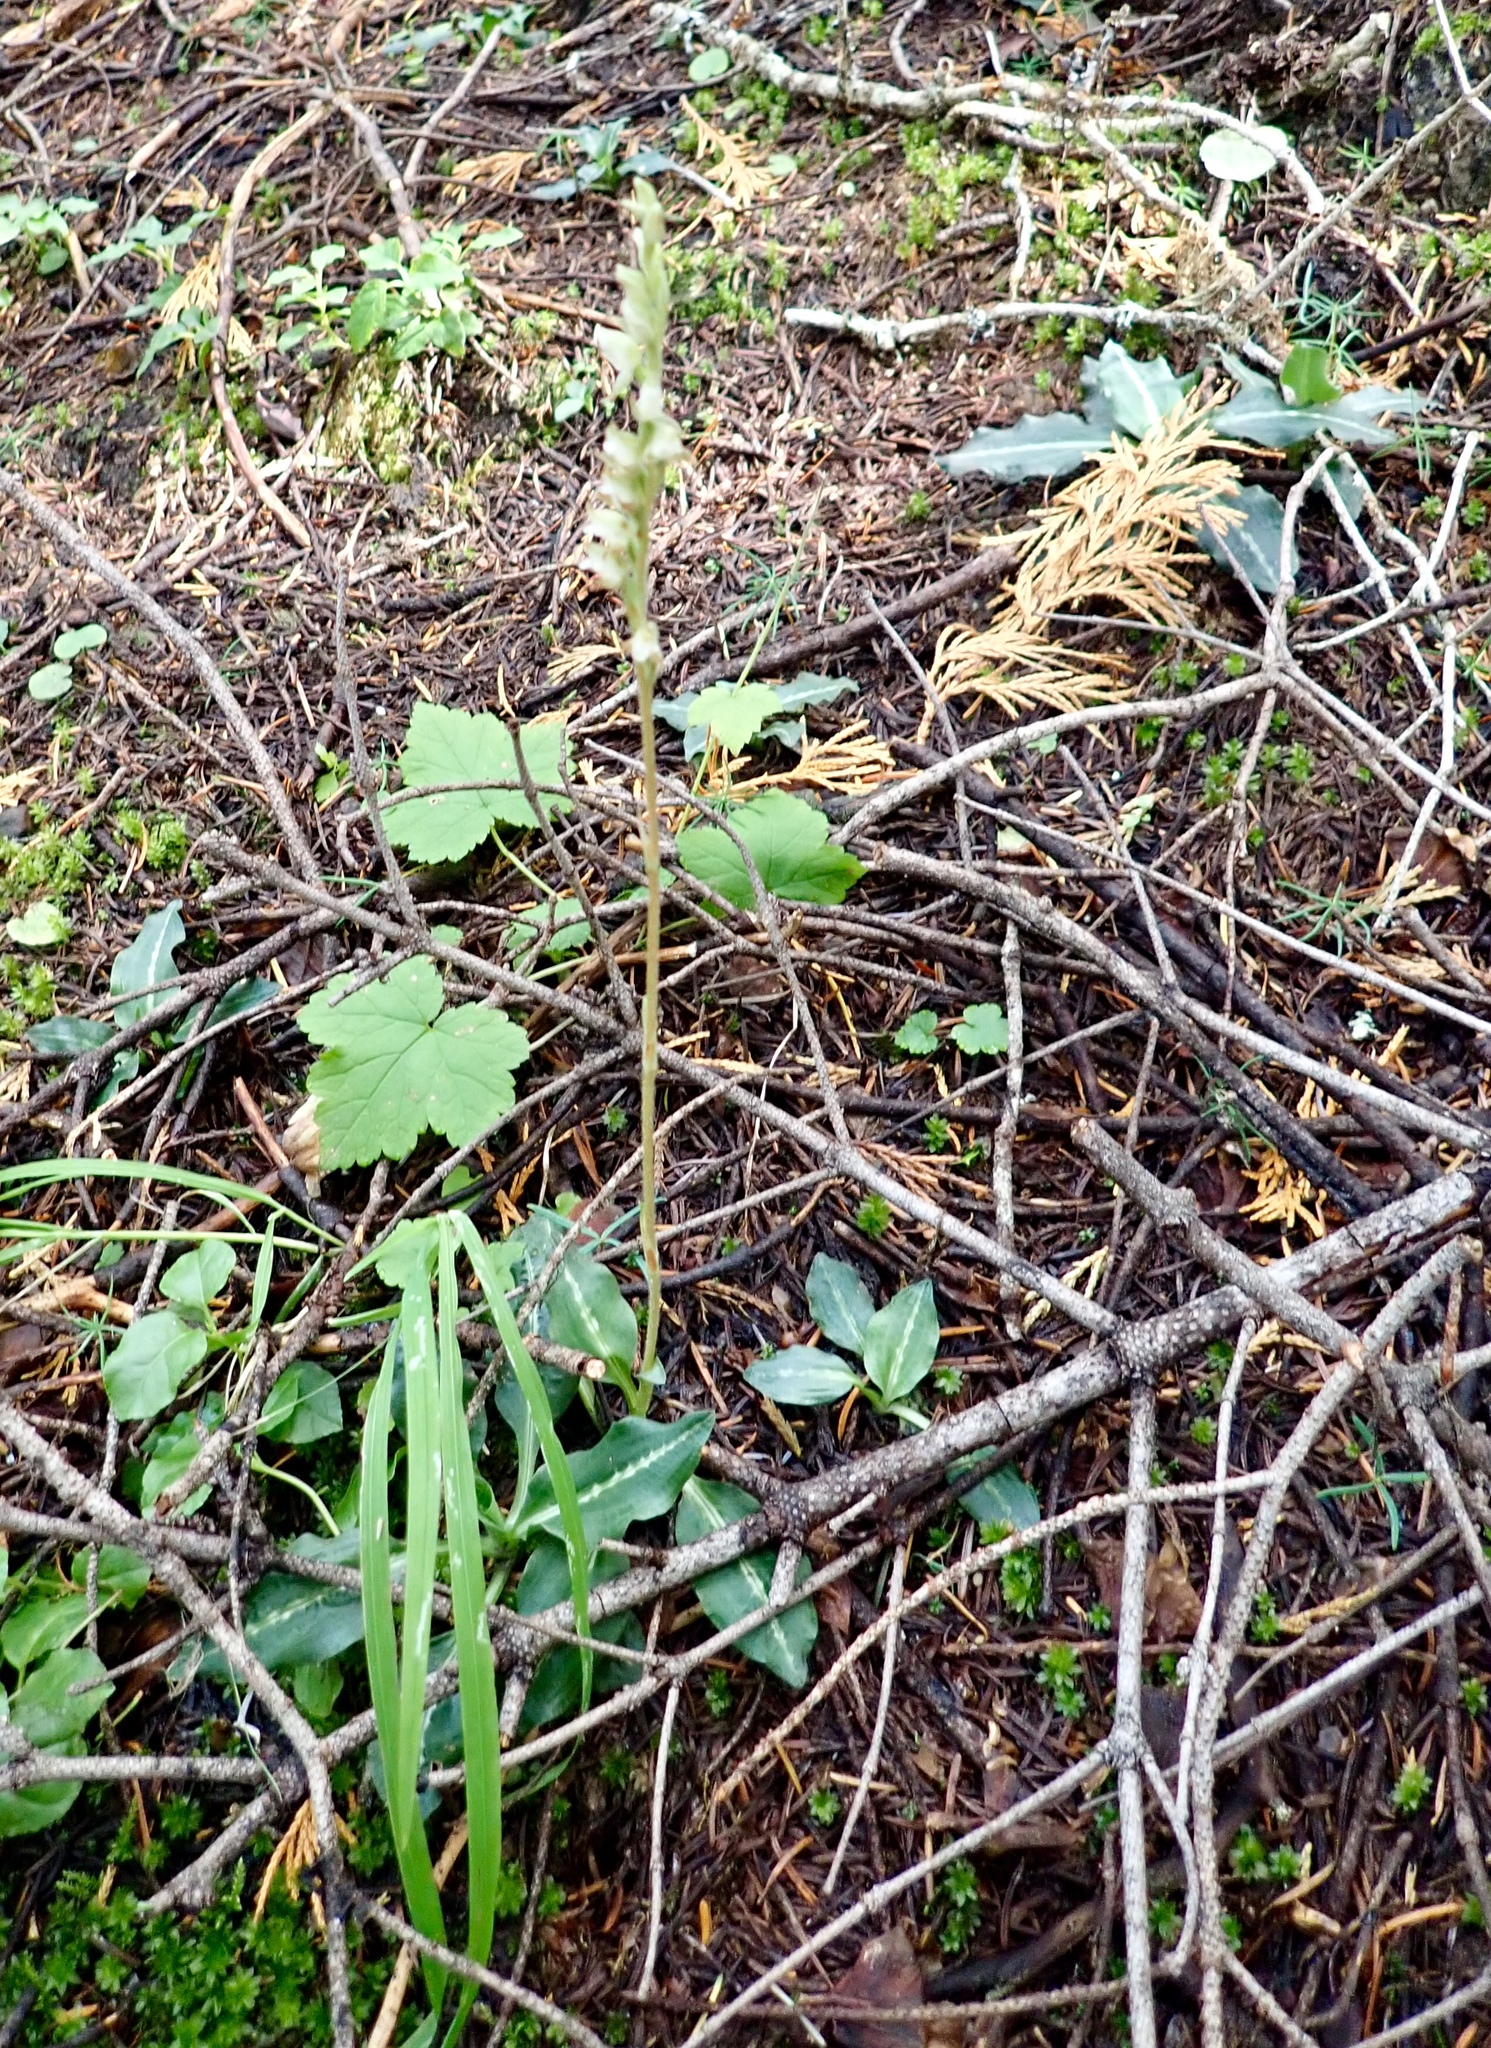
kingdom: Plantae
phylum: Tracheophyta
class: Liliopsida
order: Asparagales
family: Orchidaceae
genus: Goodyera
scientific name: Goodyera oblongifolia
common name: Giant rattlesnake-plantain
